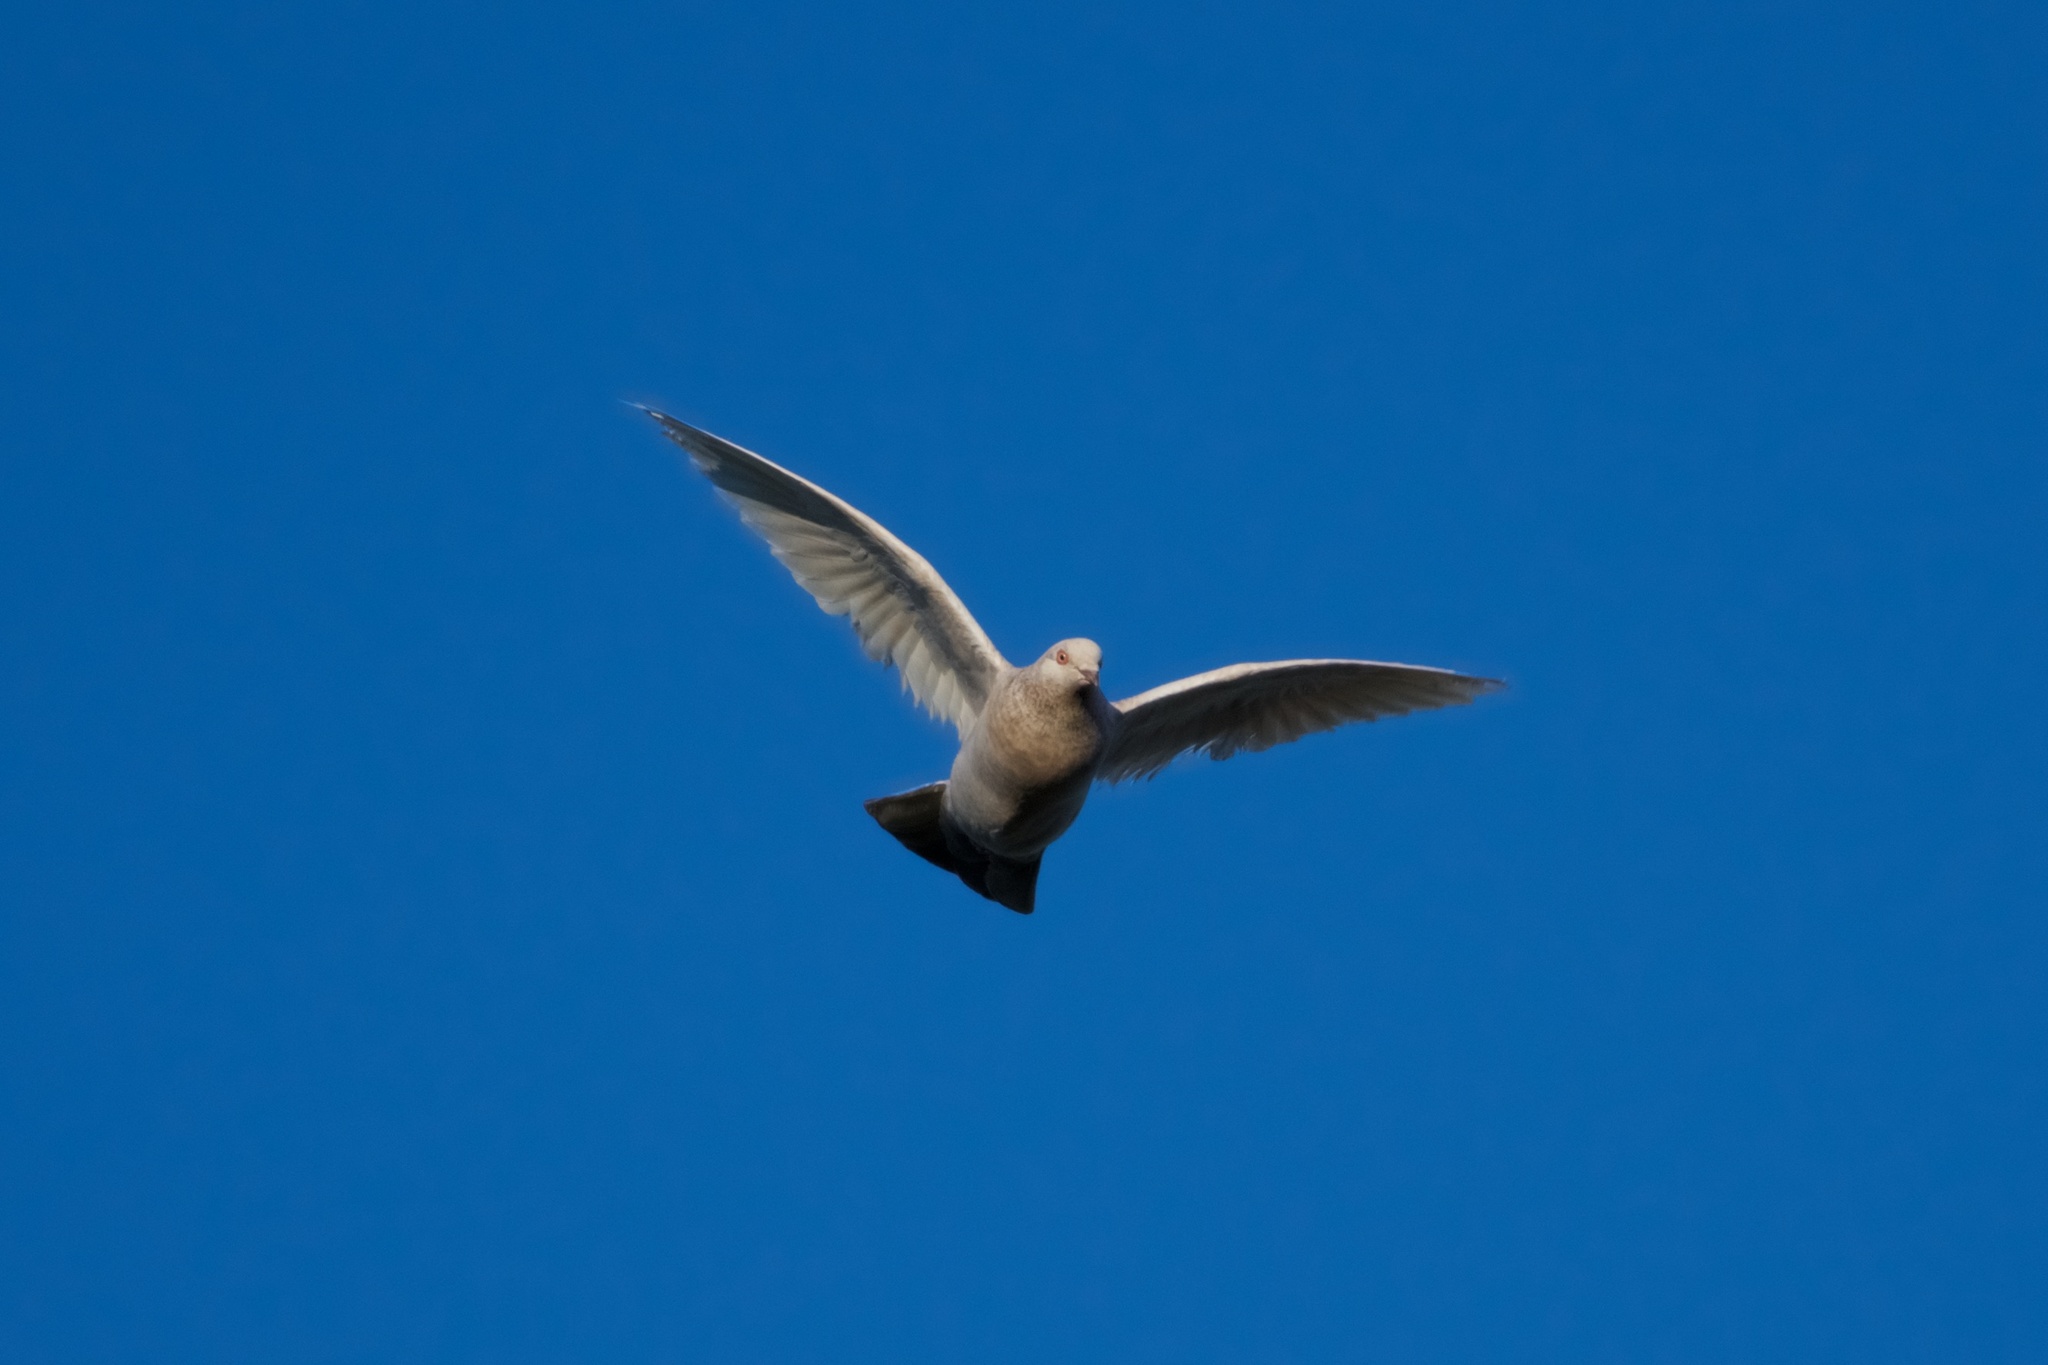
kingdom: Animalia
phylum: Chordata
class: Aves
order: Columbiformes
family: Columbidae
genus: Columba
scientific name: Columba livia
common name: Rock pigeon
